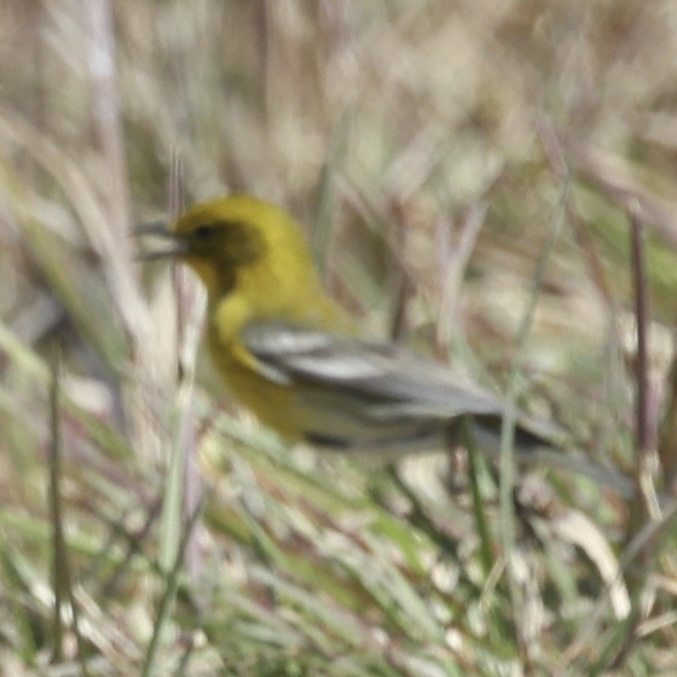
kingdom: Animalia
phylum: Chordata
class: Aves
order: Passeriformes
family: Parulidae
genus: Setophaga
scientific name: Setophaga pinus
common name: Pine warbler
